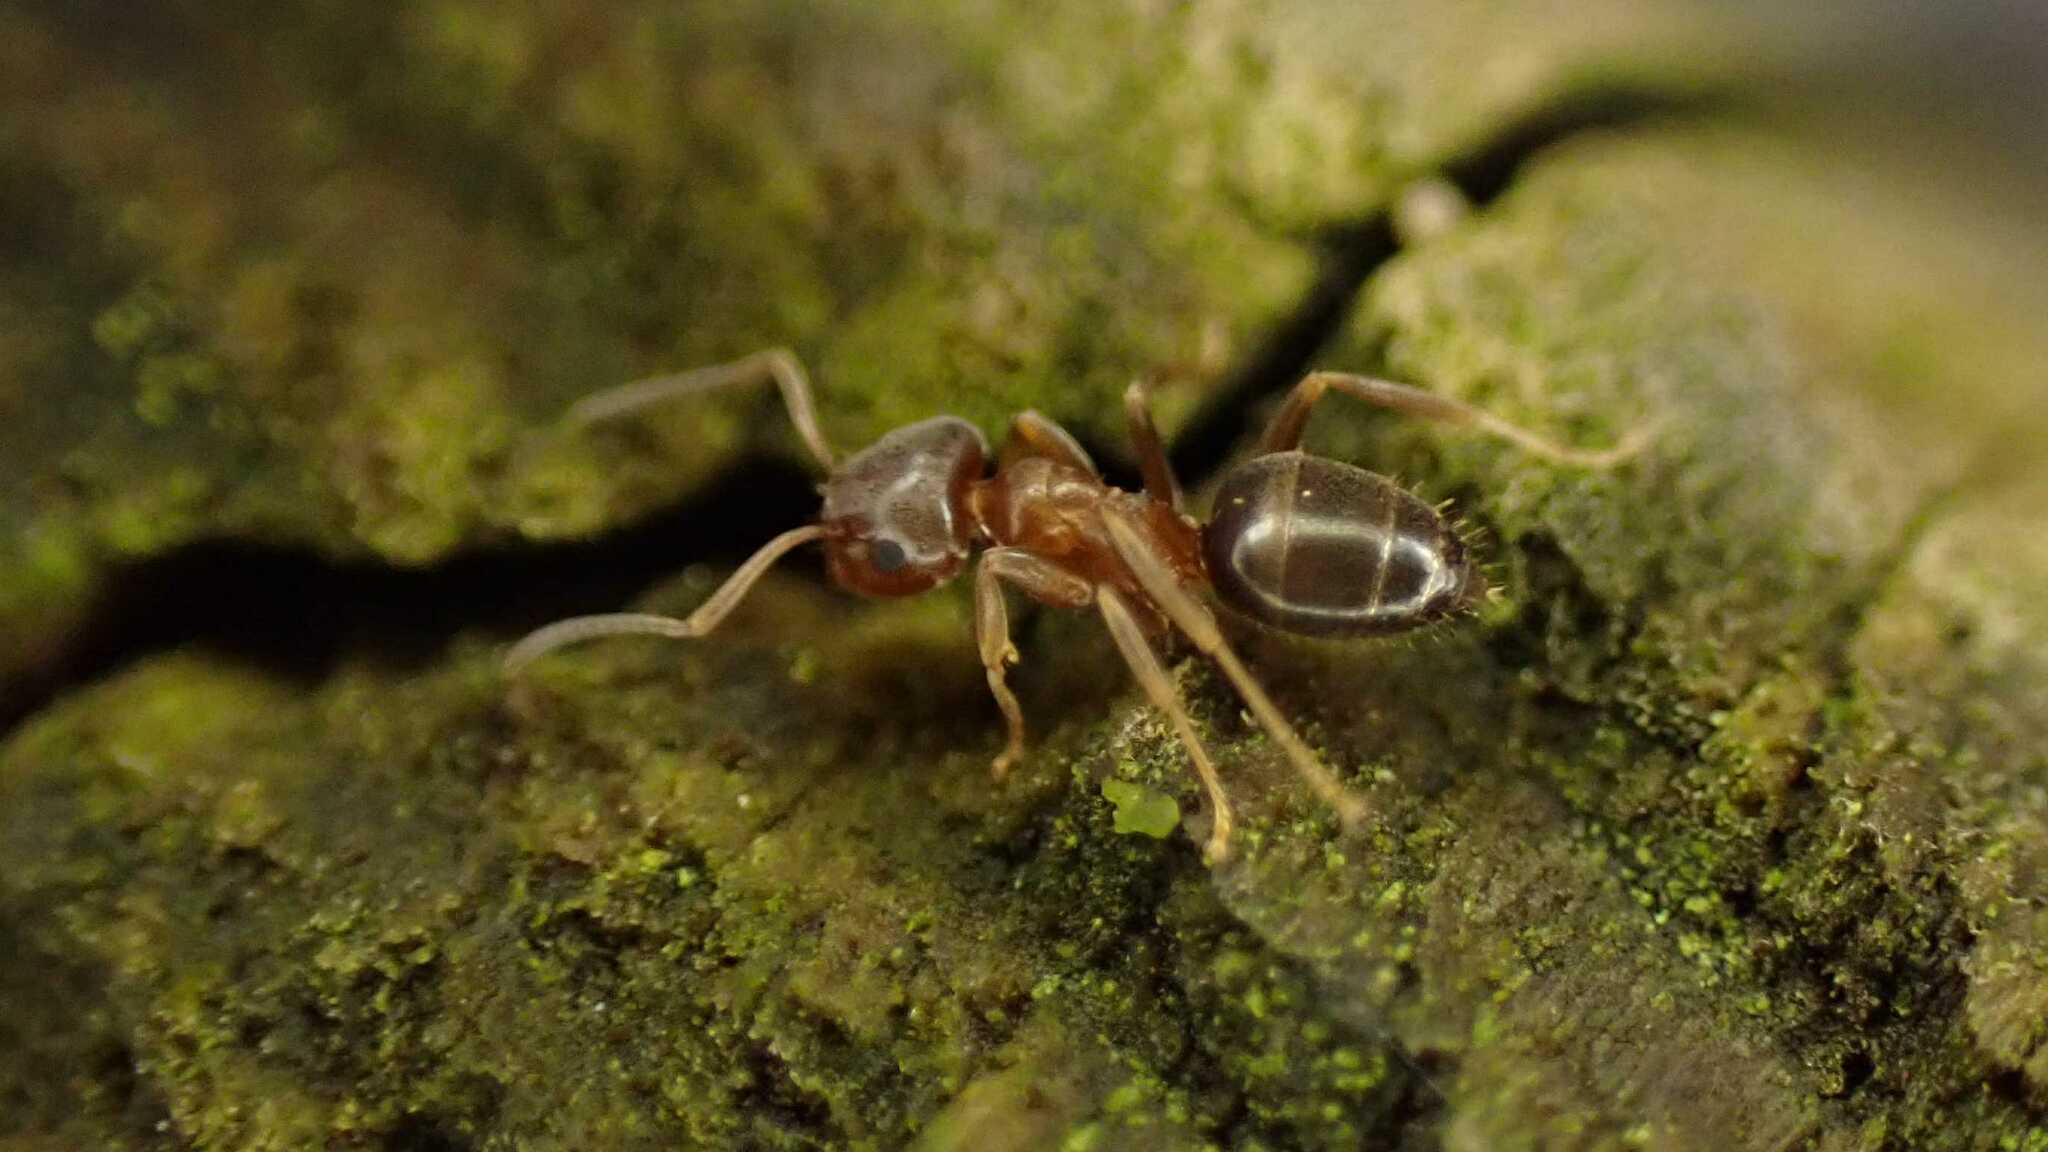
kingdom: Animalia
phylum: Arthropoda
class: Insecta
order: Hymenoptera
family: Formicidae
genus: Lasius
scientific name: Lasius brunneus
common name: Brown ant
